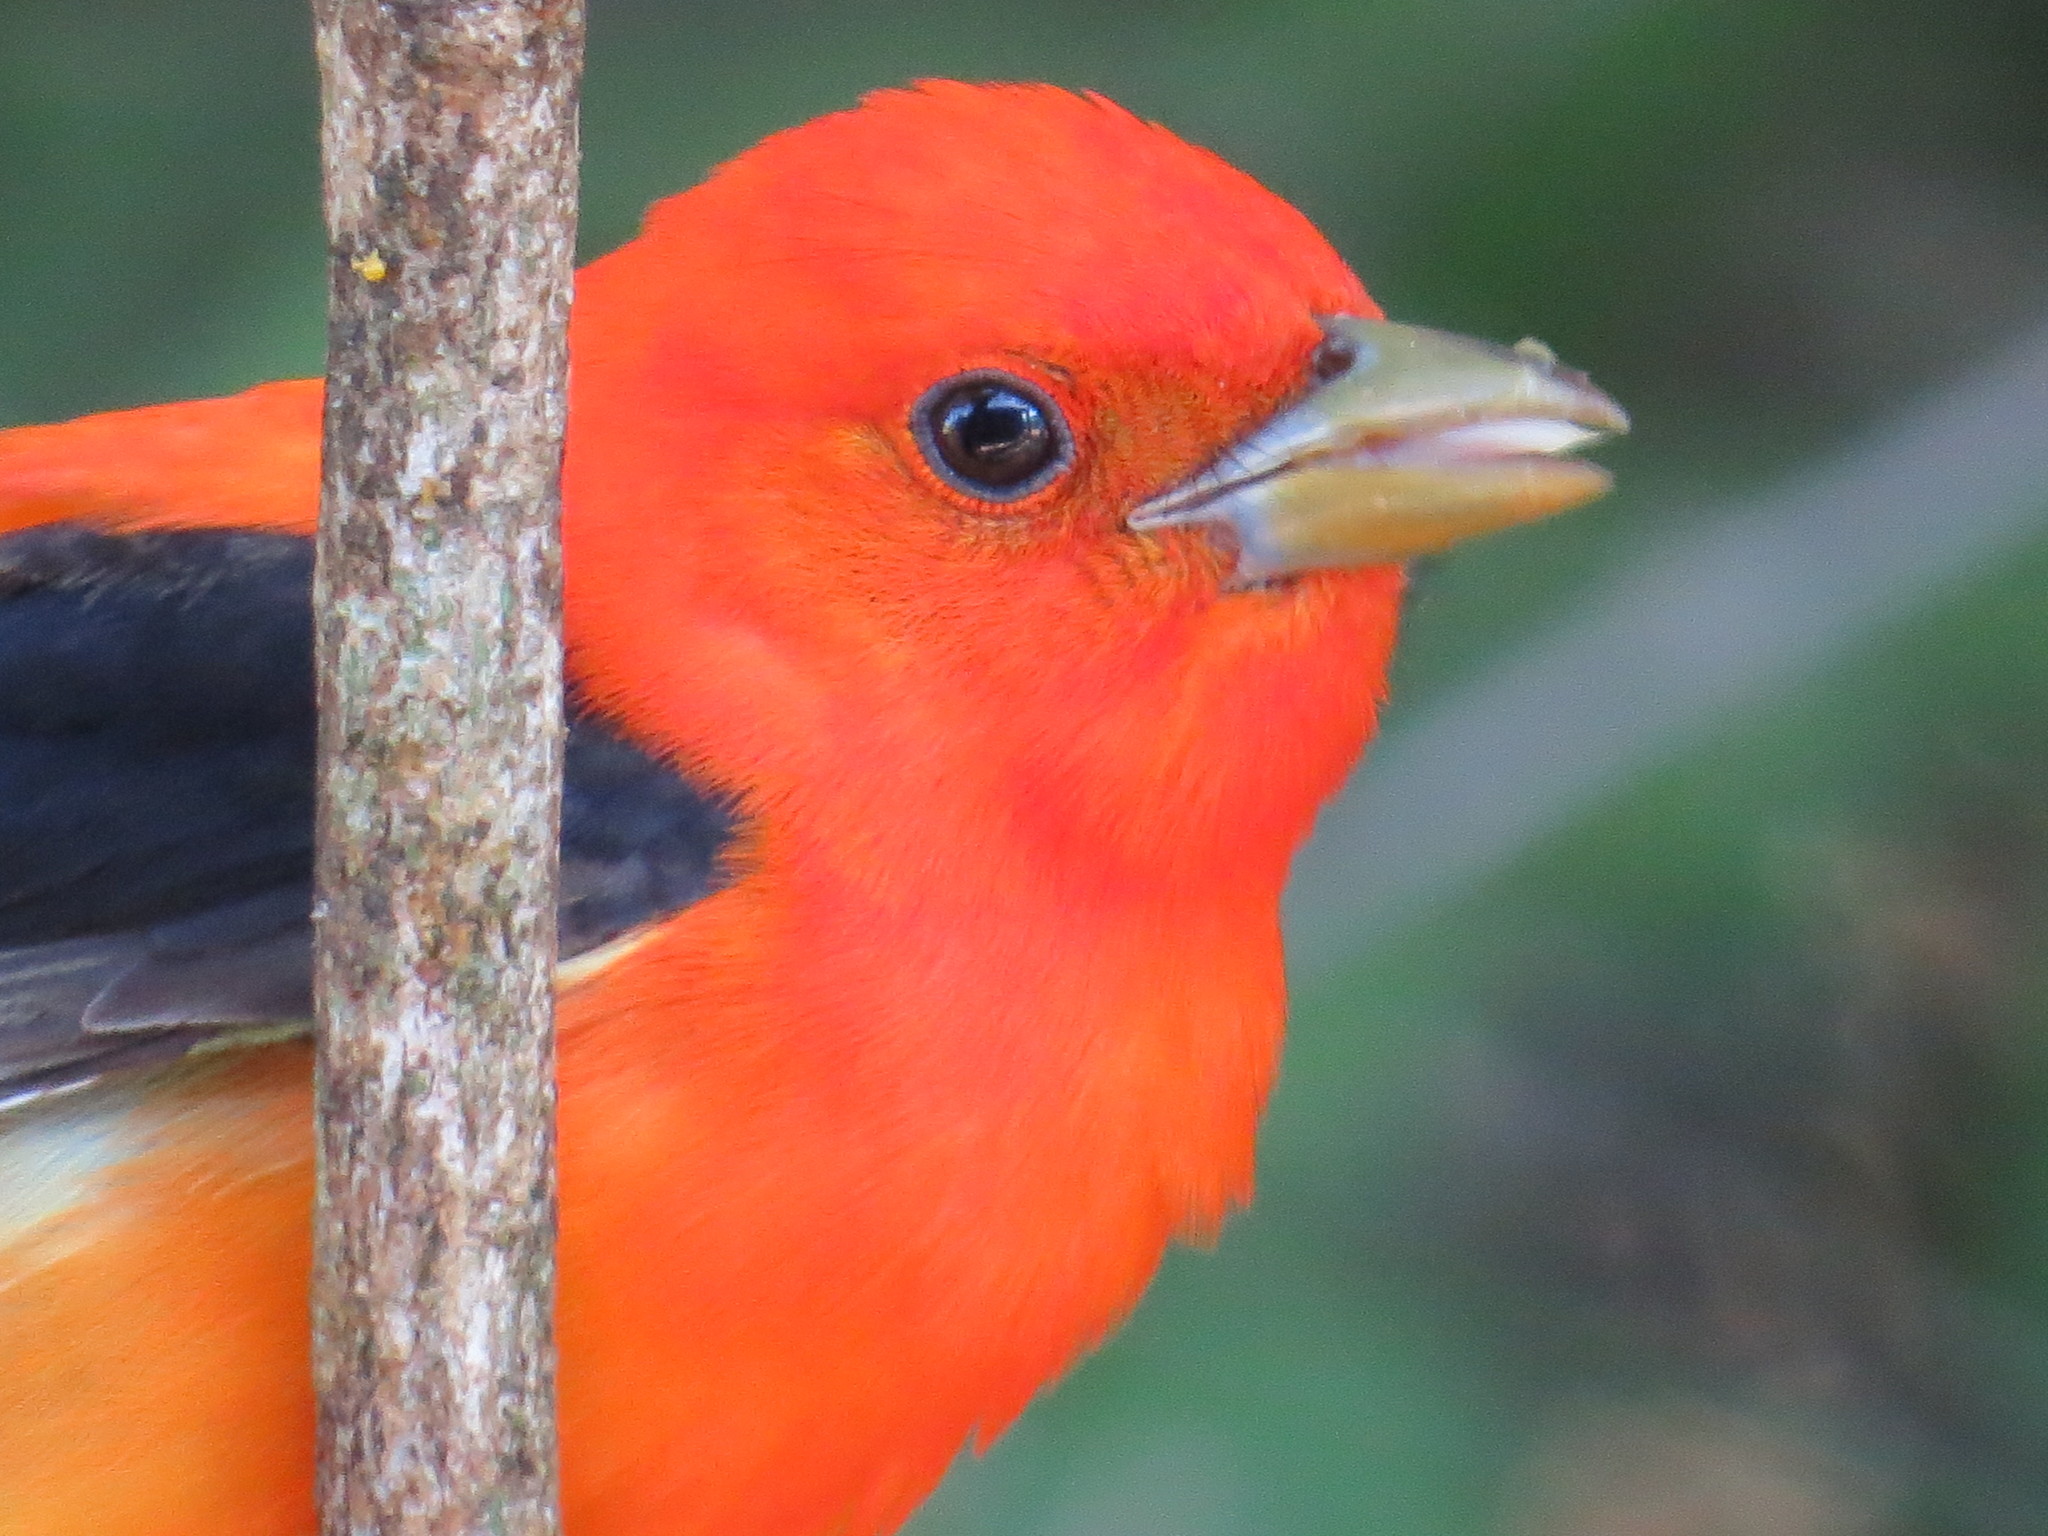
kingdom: Animalia
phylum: Chordata
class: Aves
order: Passeriformes
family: Cardinalidae
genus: Piranga
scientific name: Piranga olivacea
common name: Scarlet tanager
